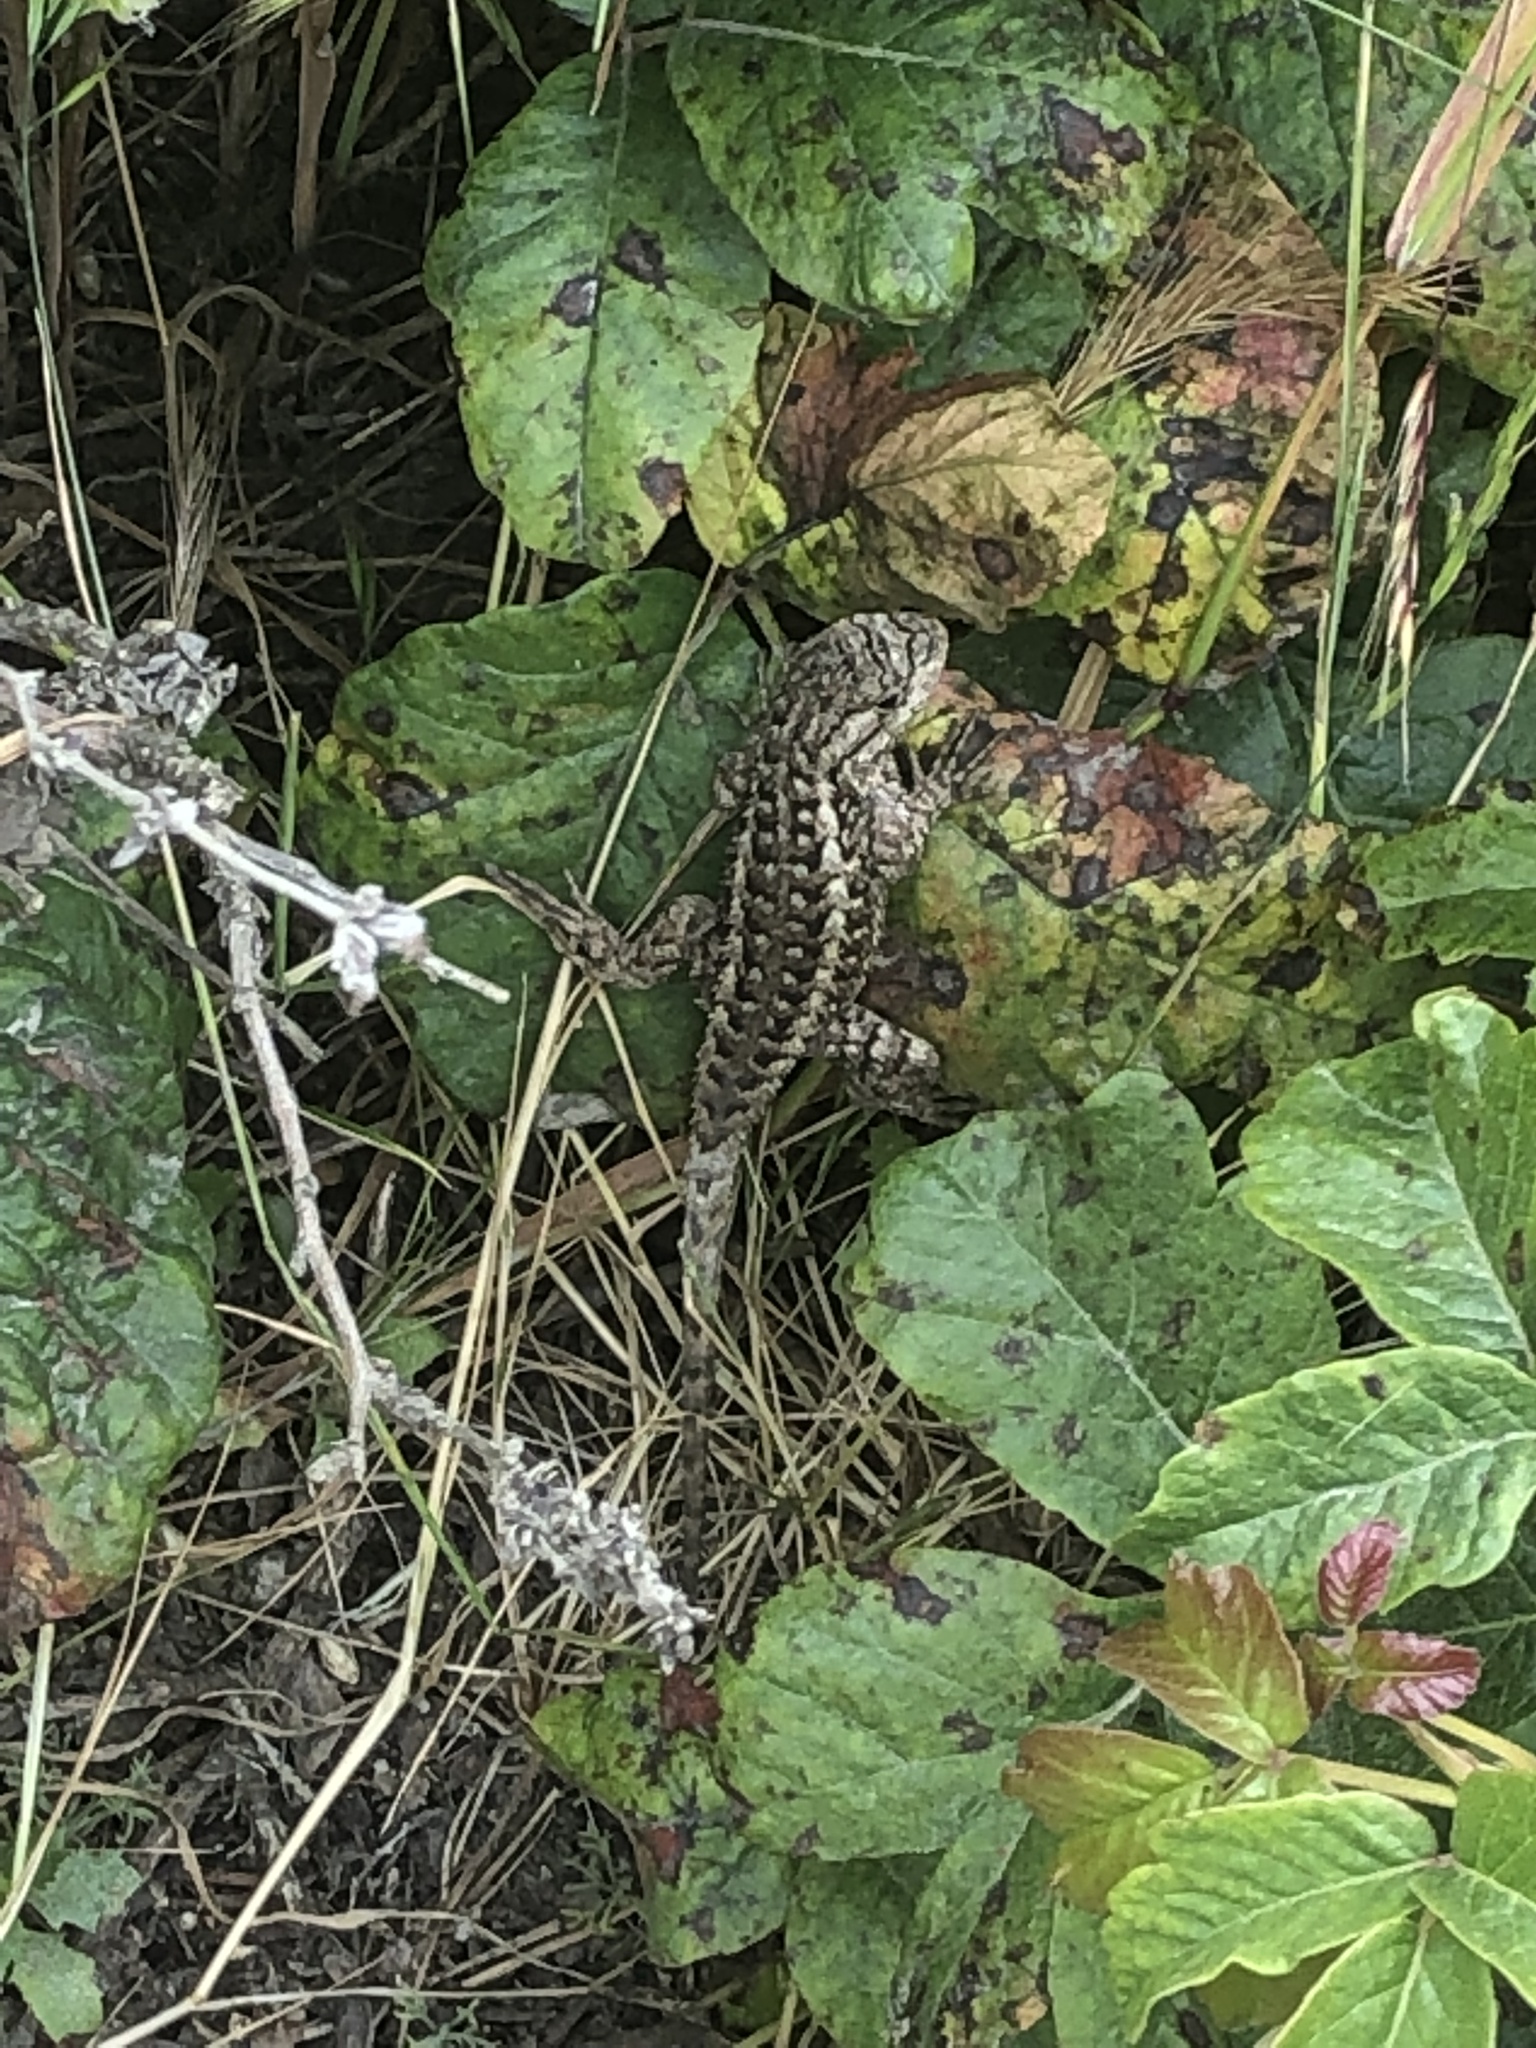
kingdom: Animalia
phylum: Chordata
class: Squamata
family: Phrynosomatidae
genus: Sceloporus
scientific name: Sceloporus occidentalis
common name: Western fence lizard
